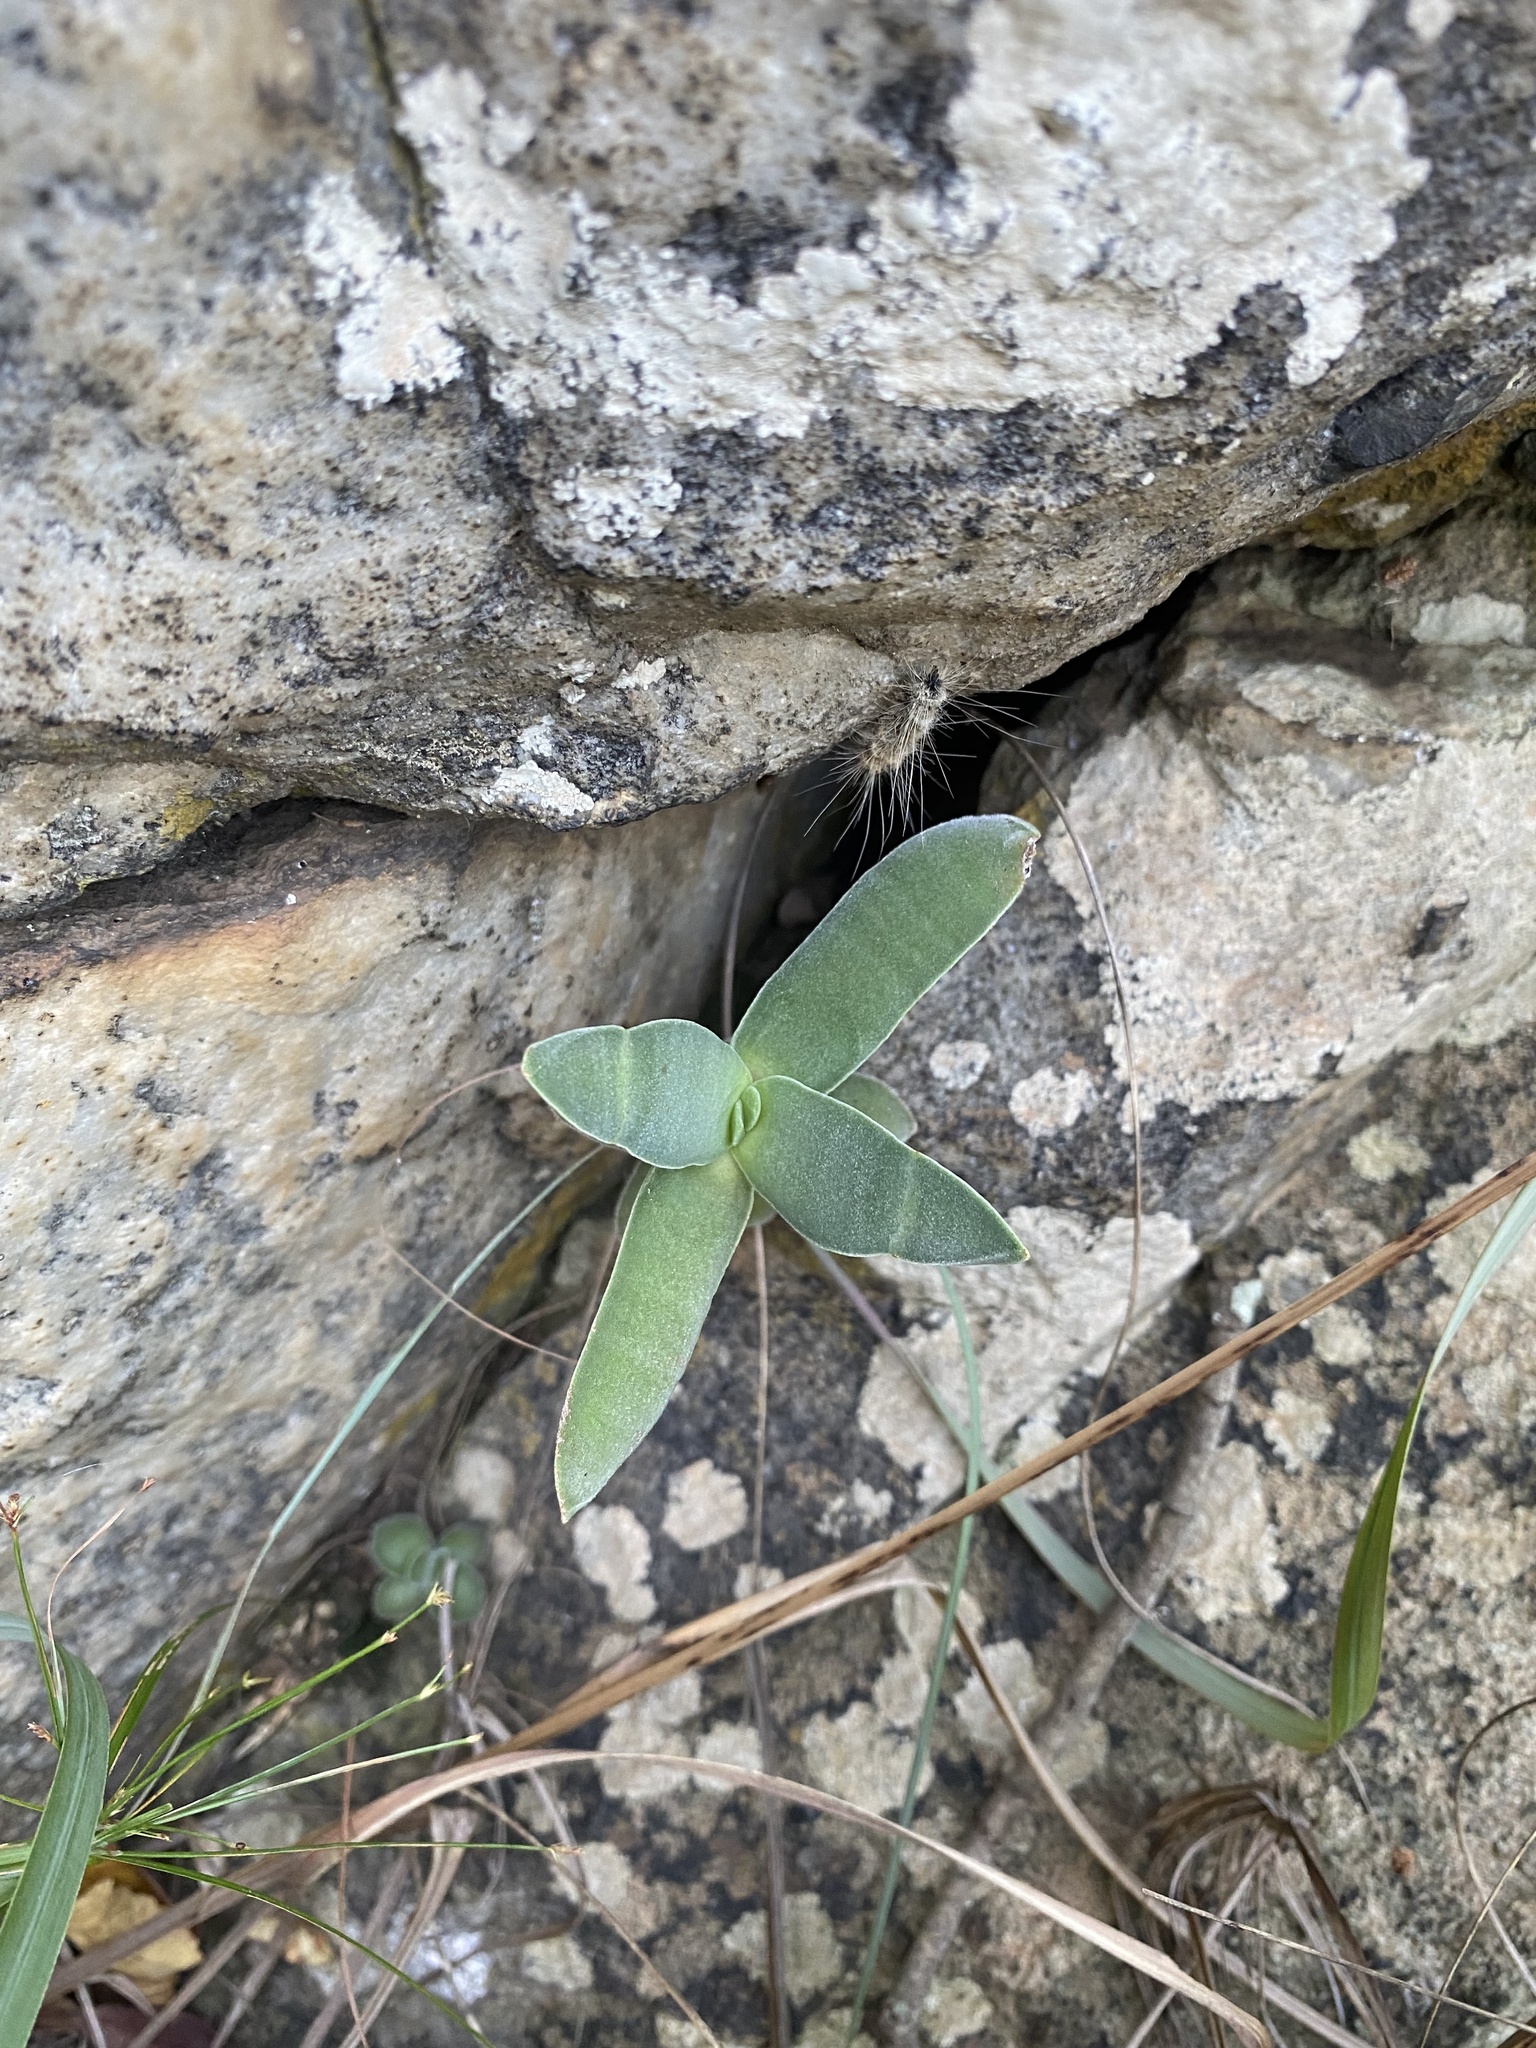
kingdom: Plantae
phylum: Tracheophyta
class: Magnoliopsida
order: Saxifragales
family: Crassulaceae
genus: Crassula
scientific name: Crassula perfoliata
